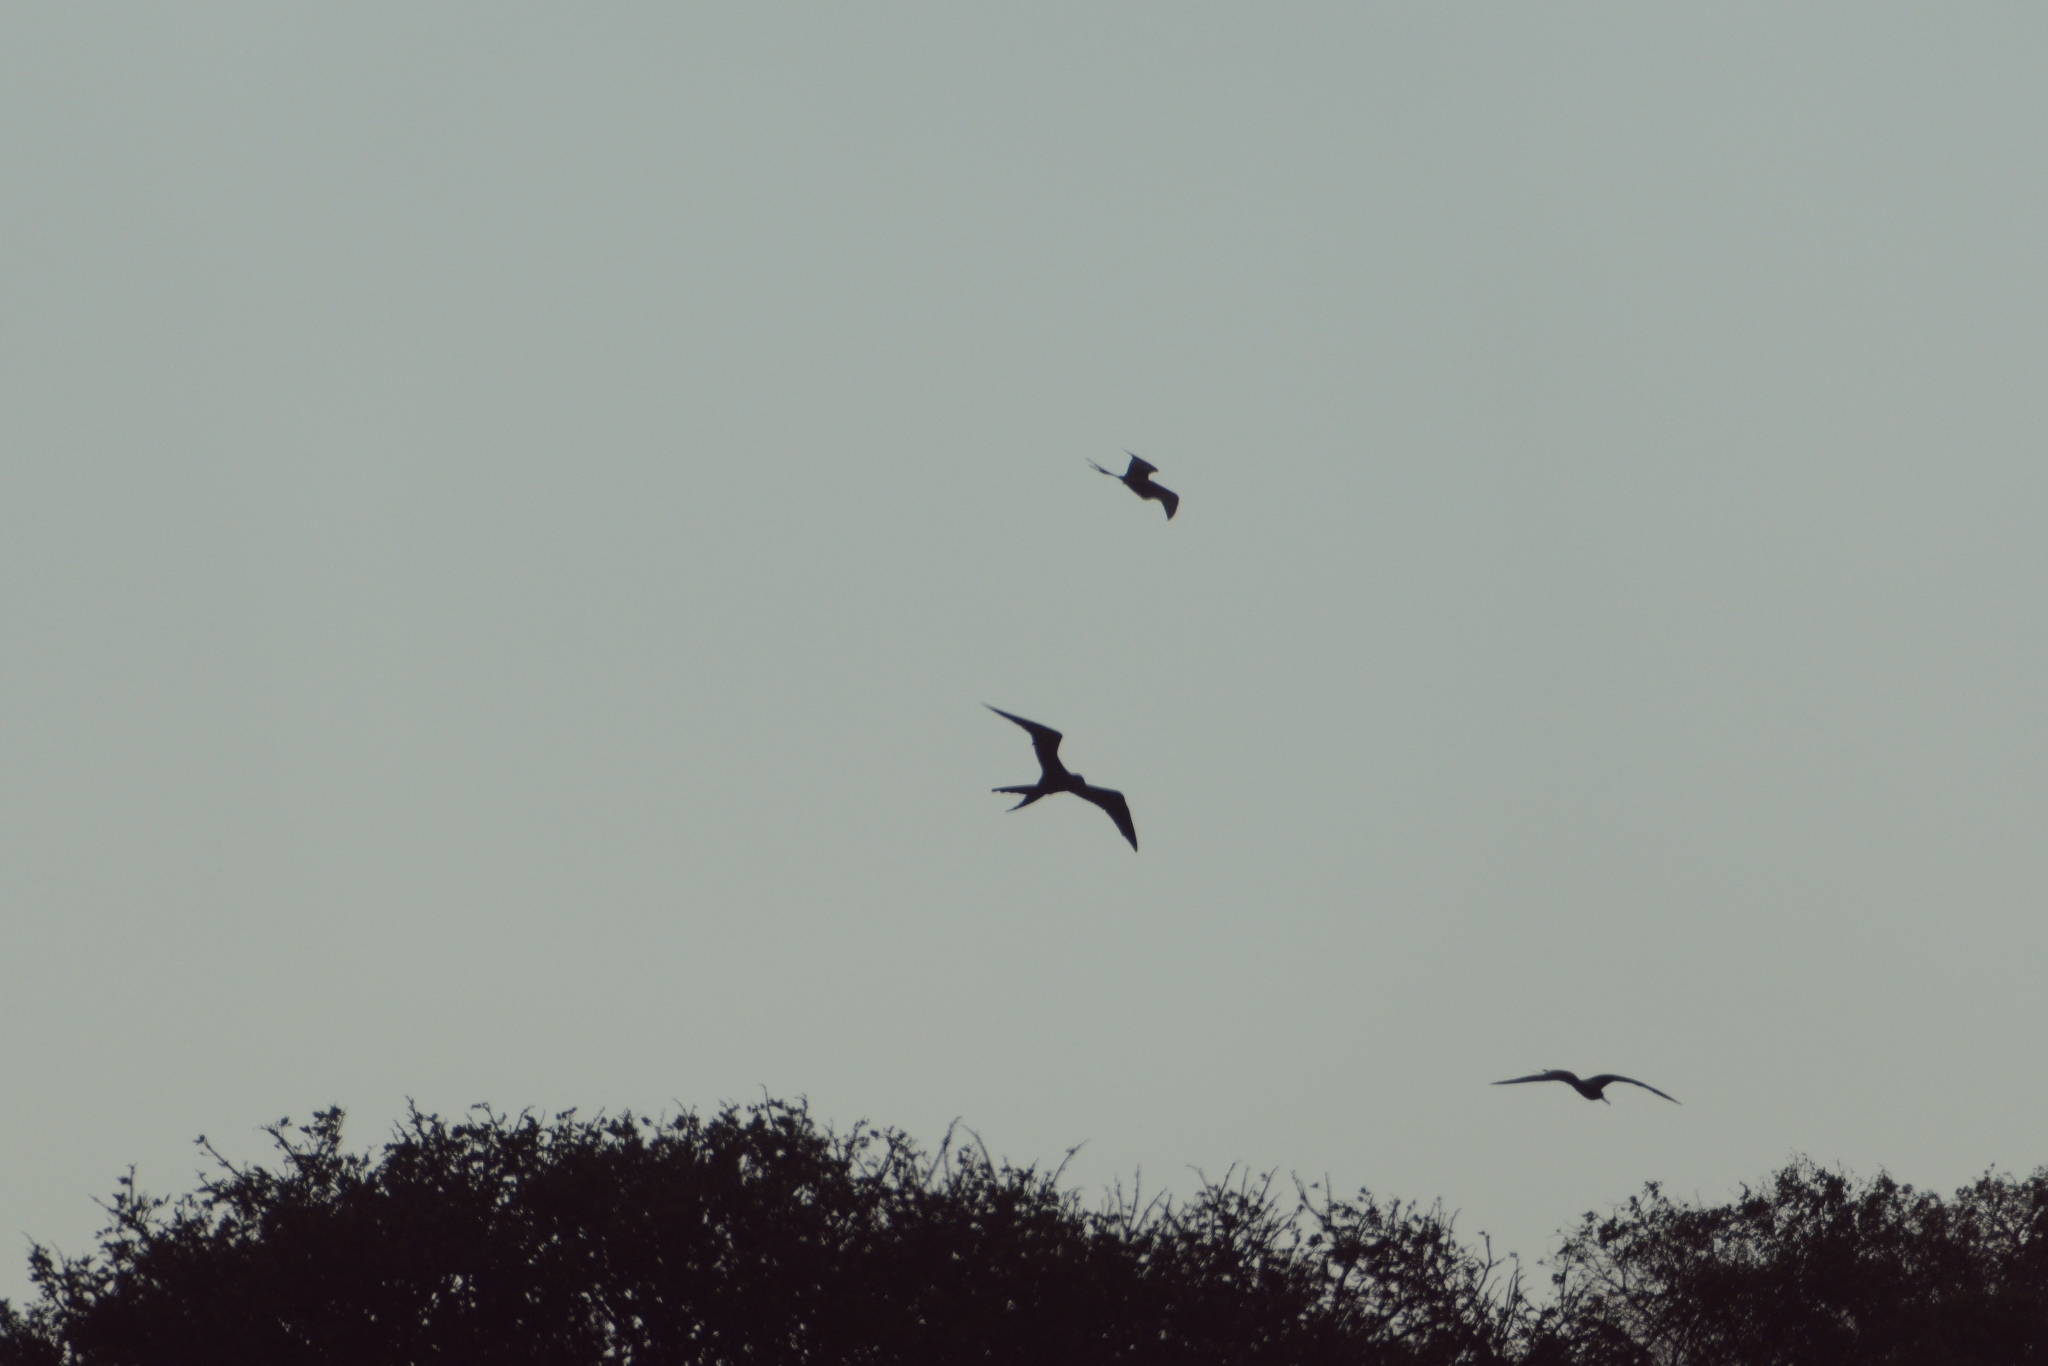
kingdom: Animalia
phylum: Chordata
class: Aves
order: Suliformes
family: Fregatidae
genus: Fregata
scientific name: Fregata magnificens
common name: Magnificent frigatebird
